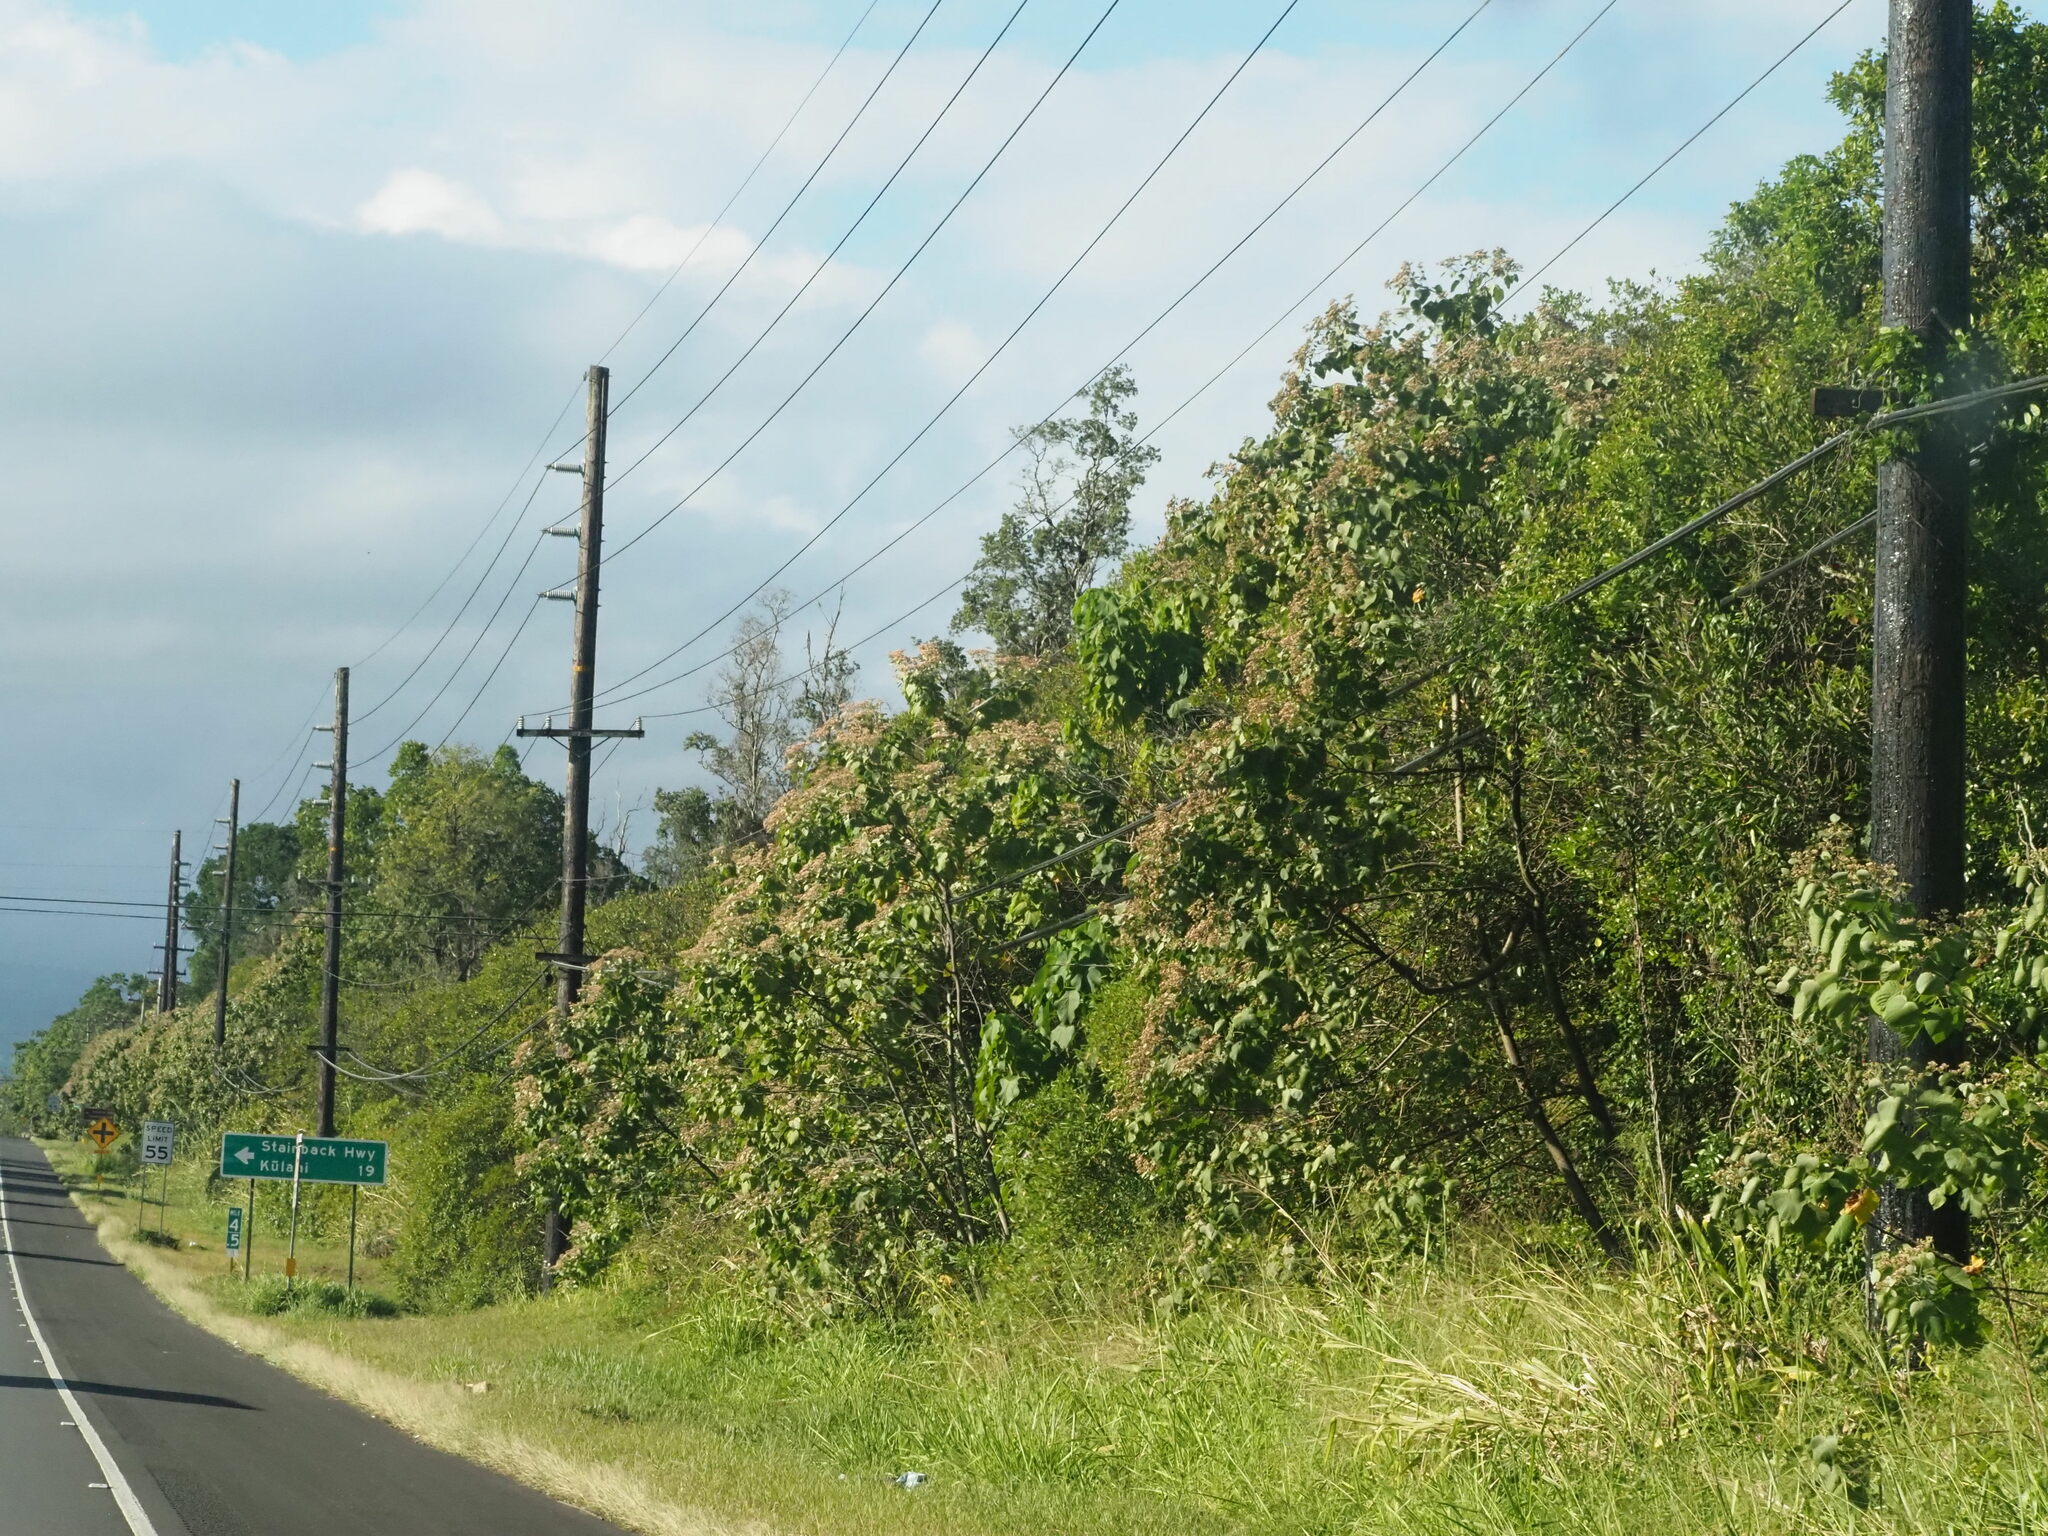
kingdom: Plantae
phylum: Tracheophyta
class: Magnoliopsida
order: Malvales
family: Malvaceae
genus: Melochia
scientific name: Melochia umbellata
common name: Gunpowder tree
